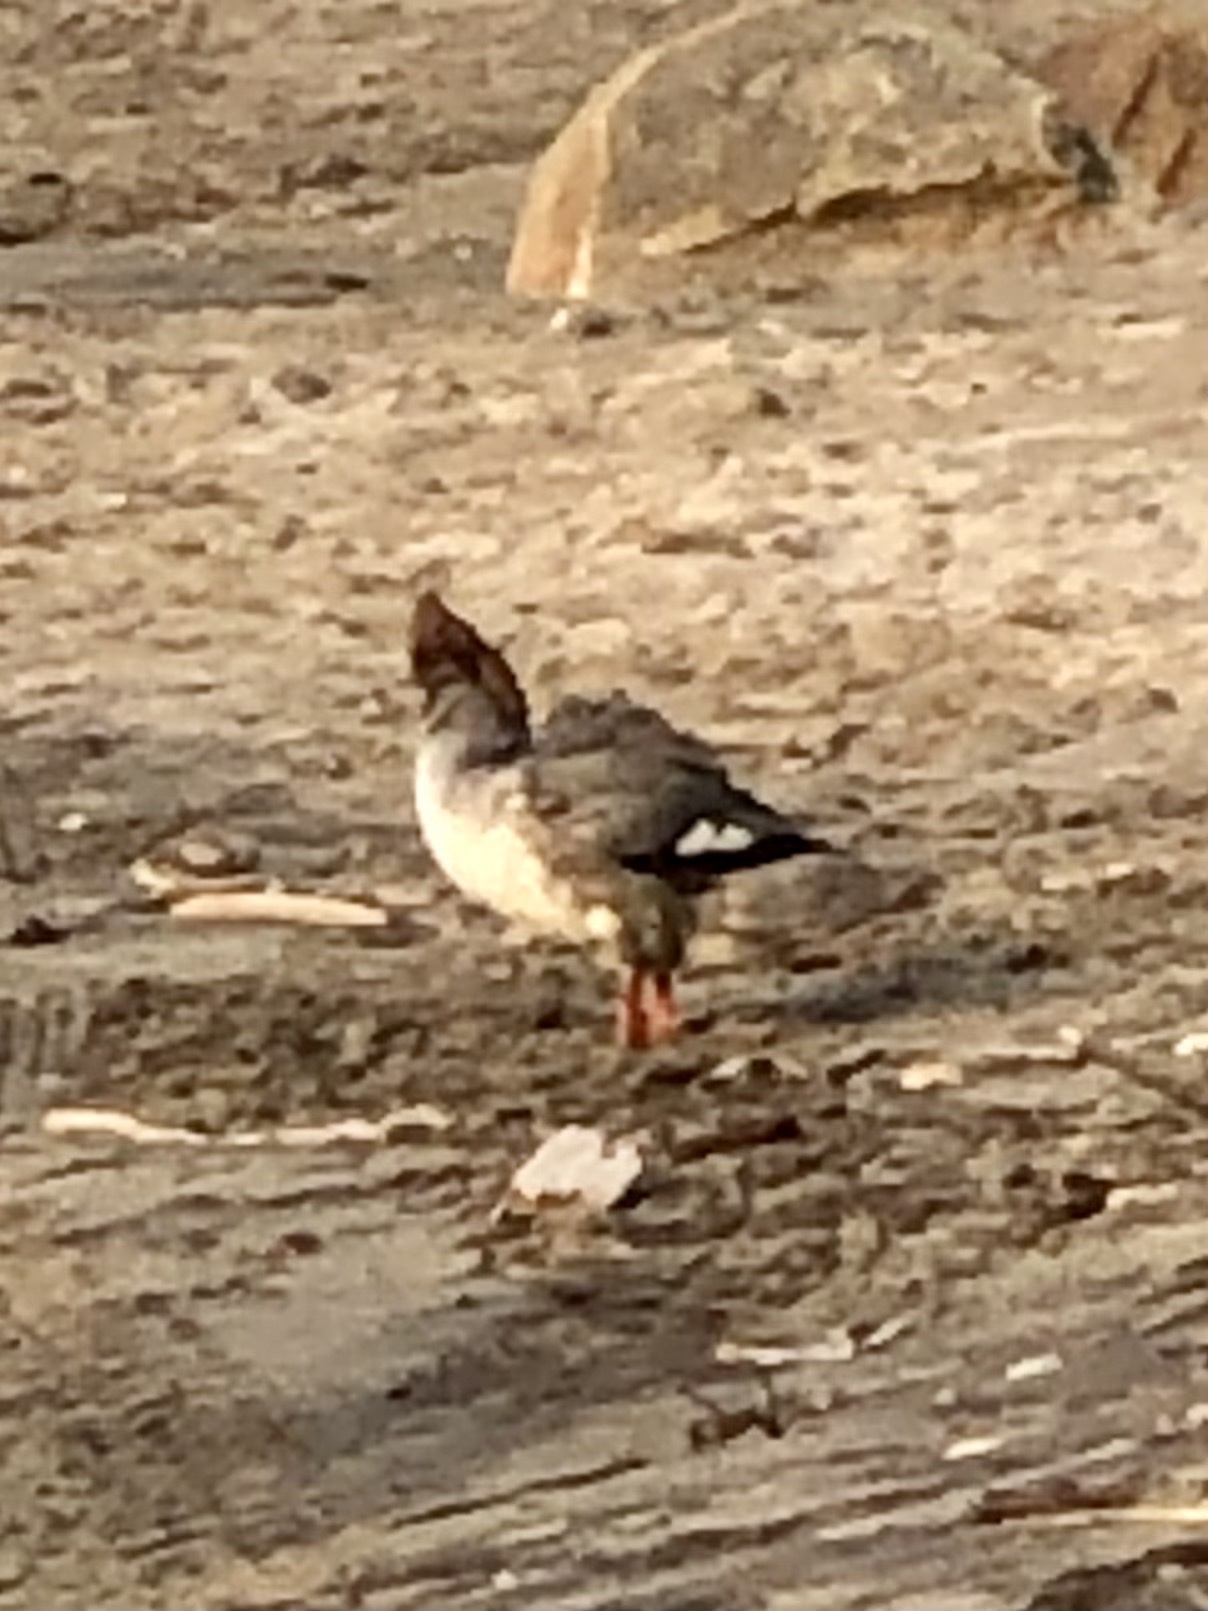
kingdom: Animalia
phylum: Chordata
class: Aves
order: Anseriformes
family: Anatidae
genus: Mergus
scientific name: Mergus merganser
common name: Common merganser
